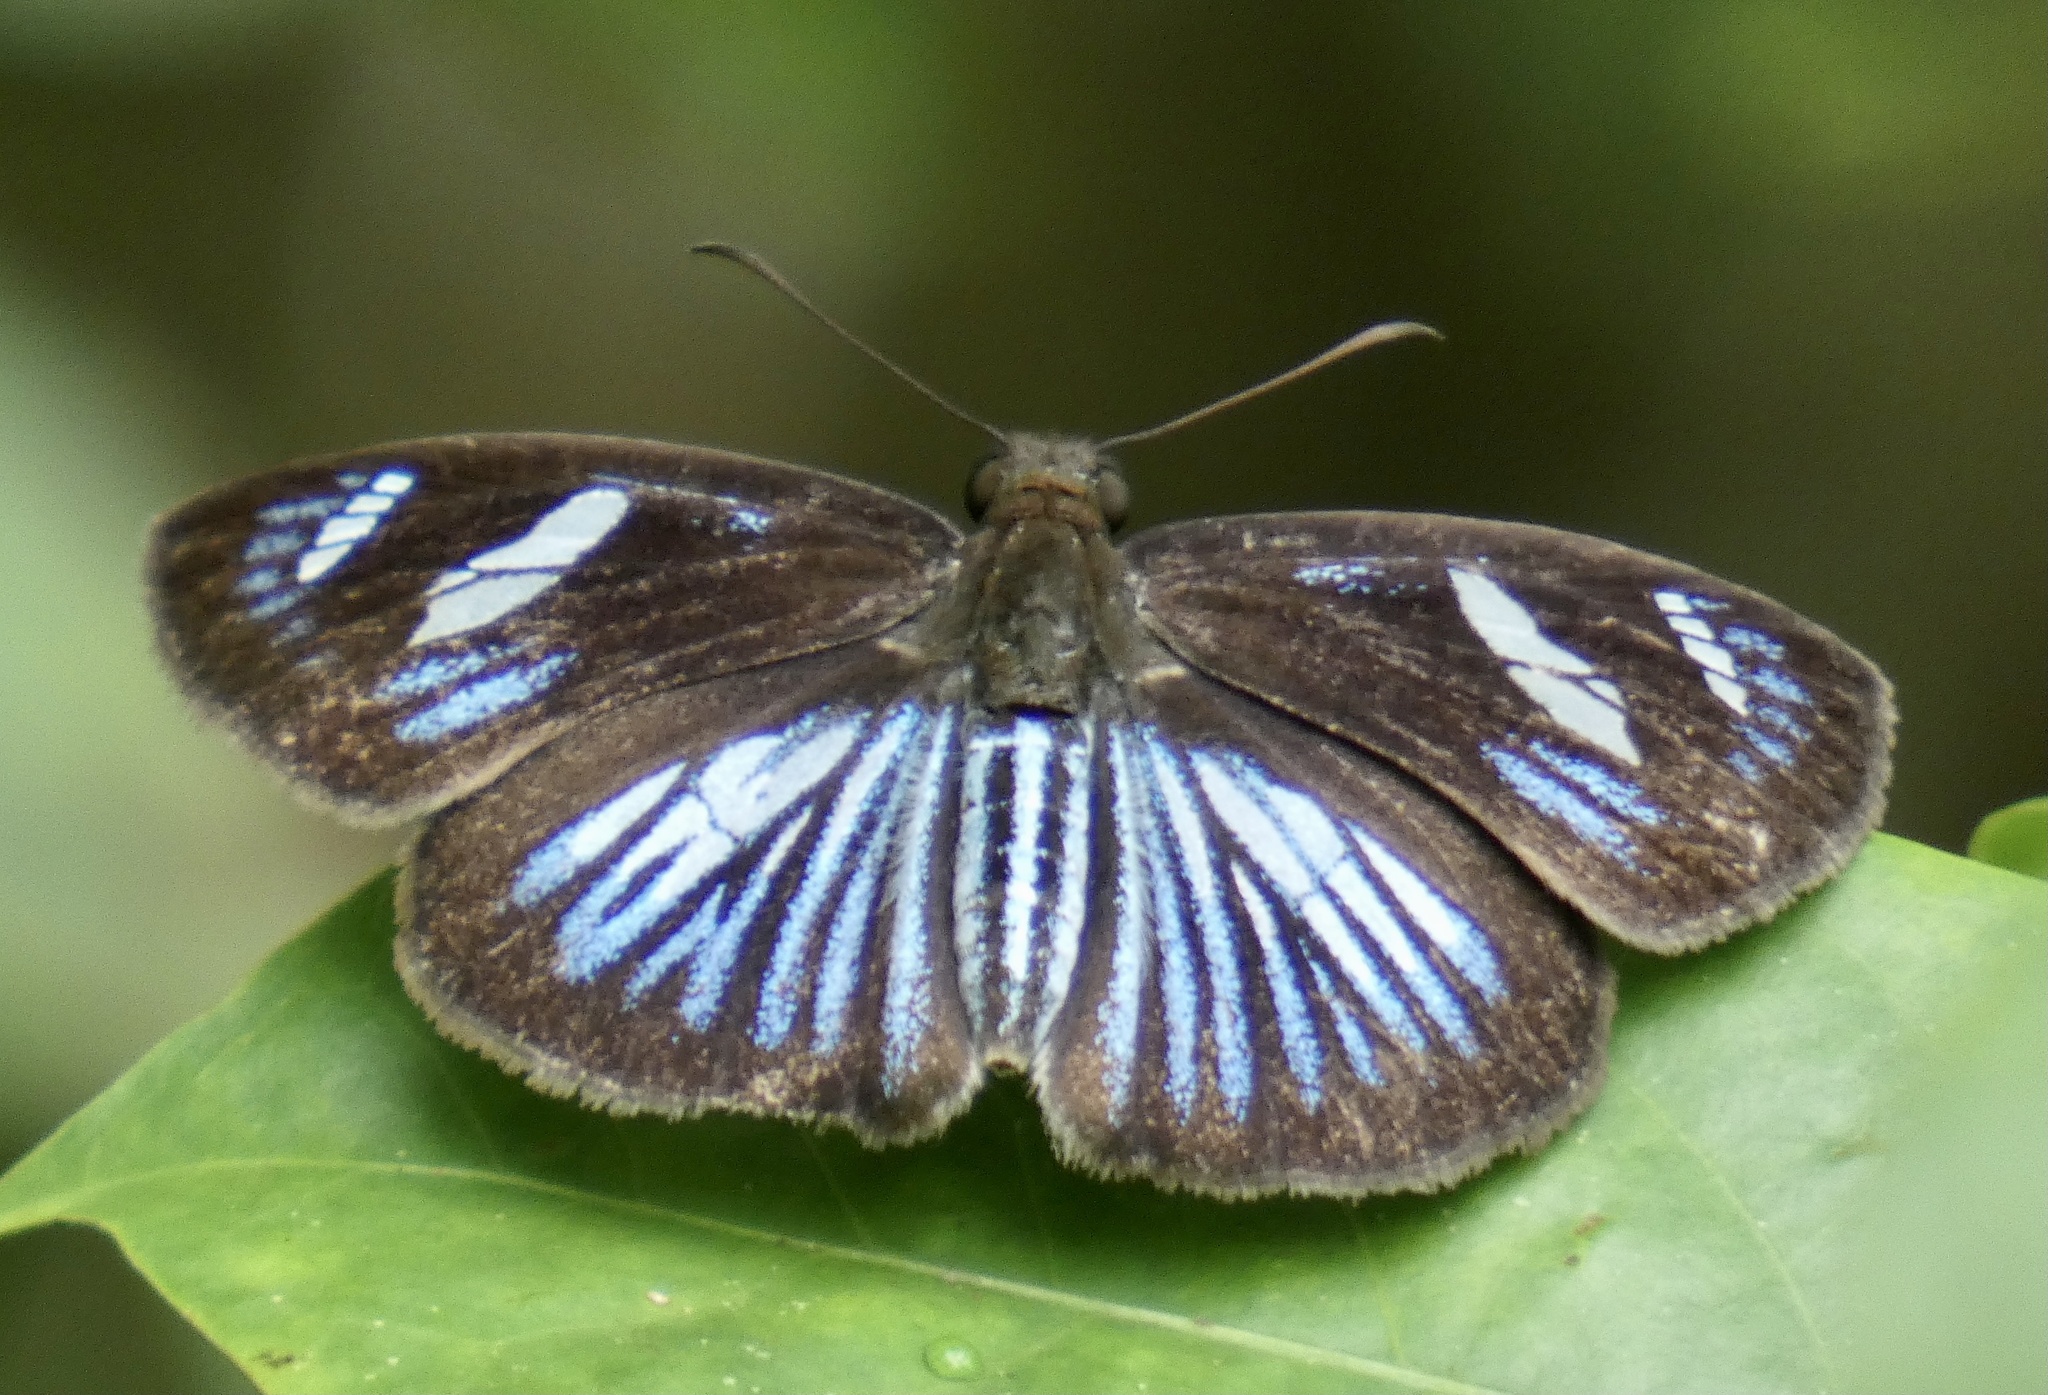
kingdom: Animalia
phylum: Arthropoda
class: Insecta
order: Lepidoptera
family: Hesperiidae
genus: Pythonides
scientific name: Pythonides jovianus
